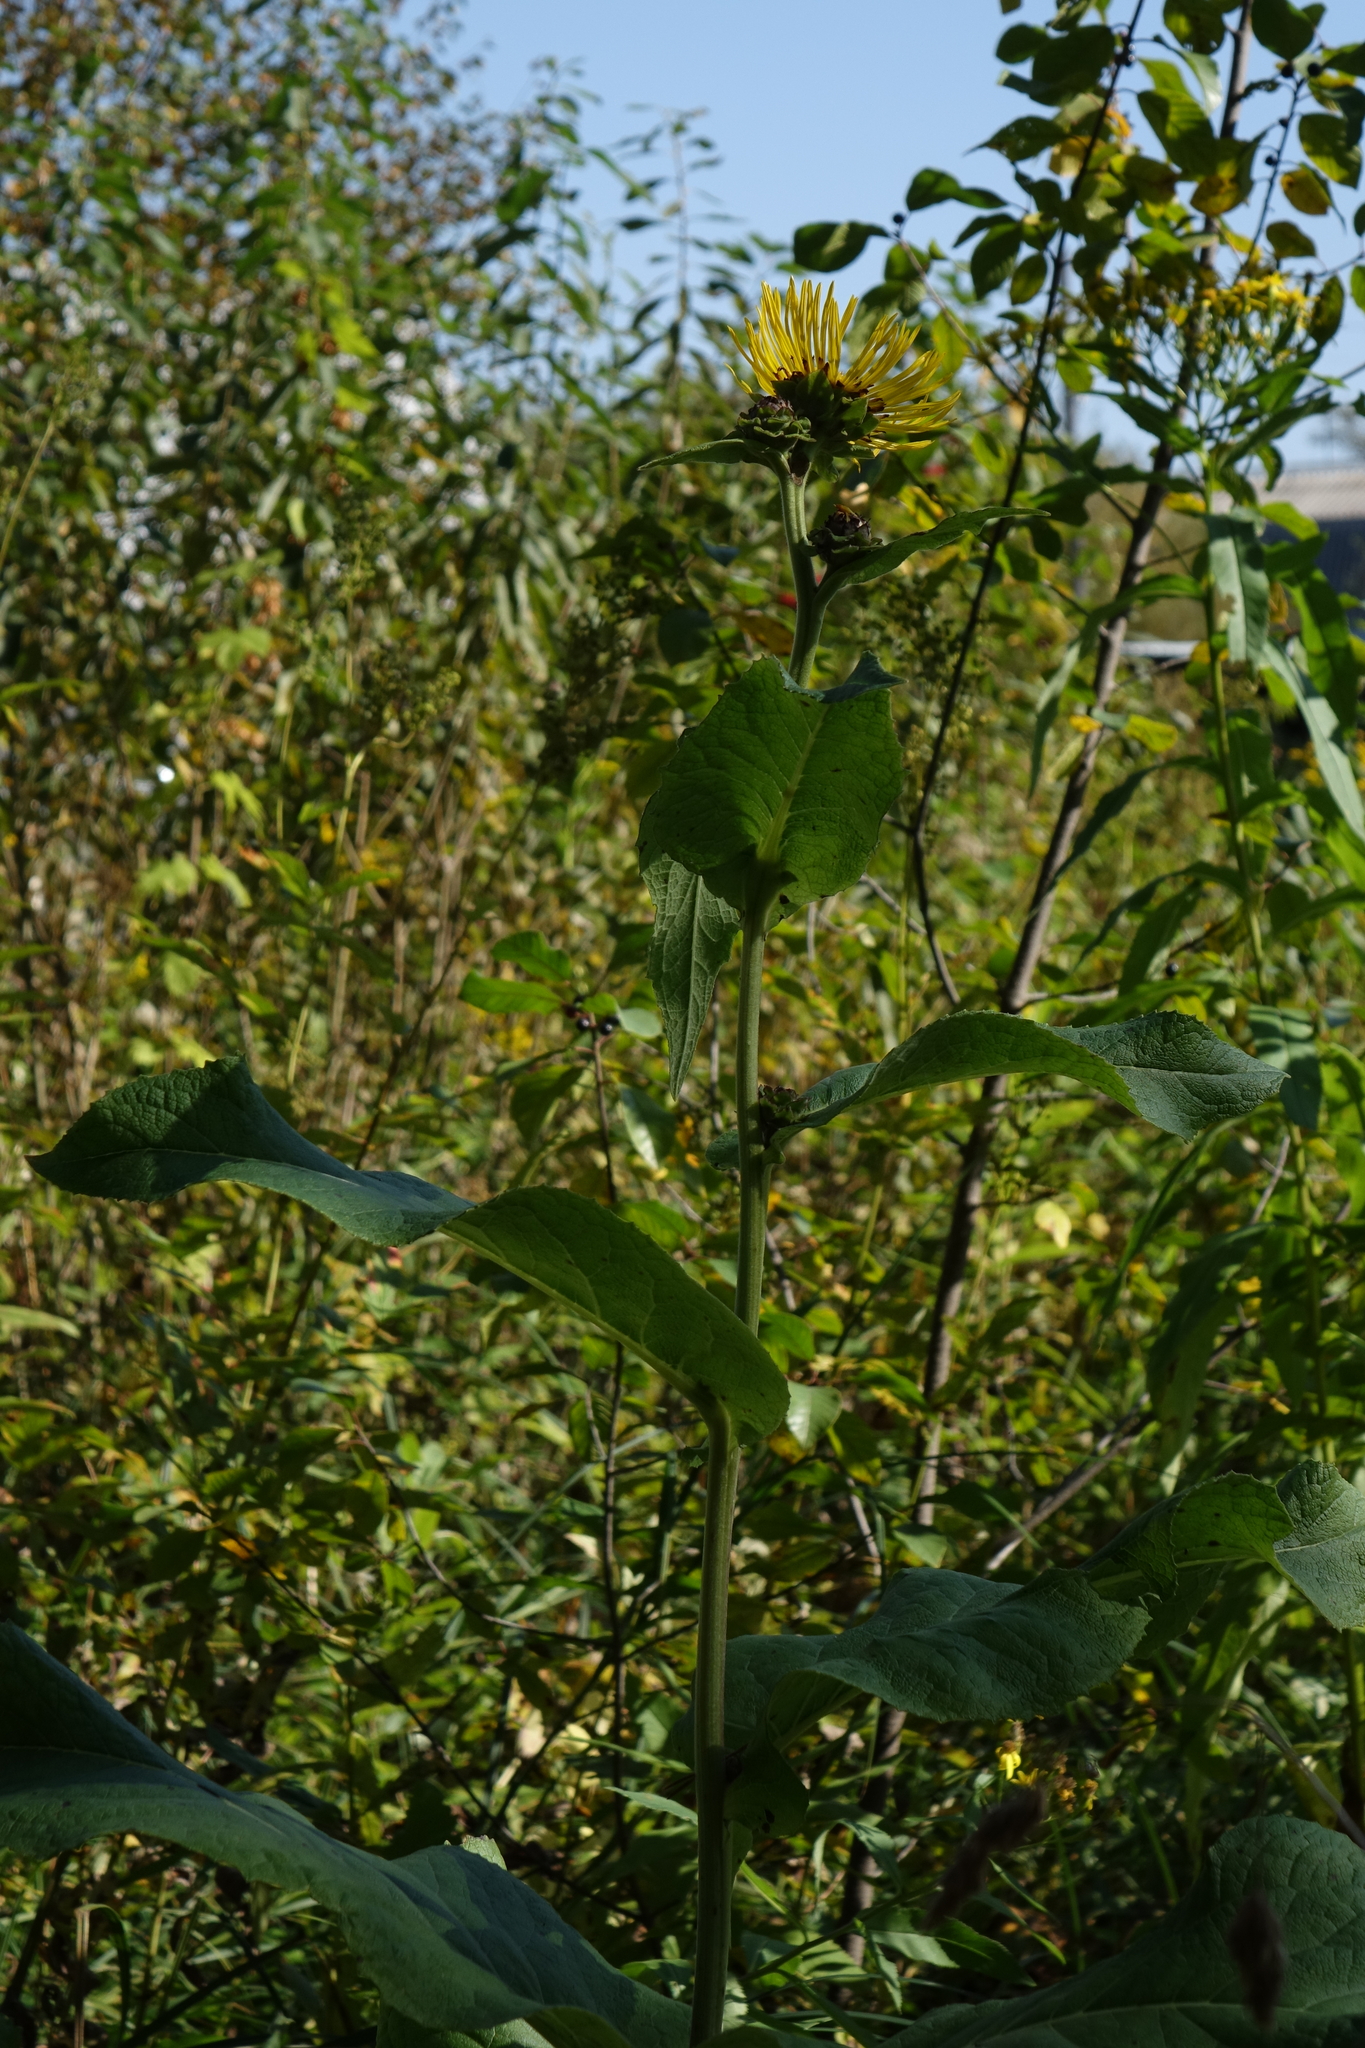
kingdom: Plantae
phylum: Tracheophyta
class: Magnoliopsida
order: Asterales
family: Asteraceae
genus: Inula
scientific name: Inula helenium
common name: Elecampane
